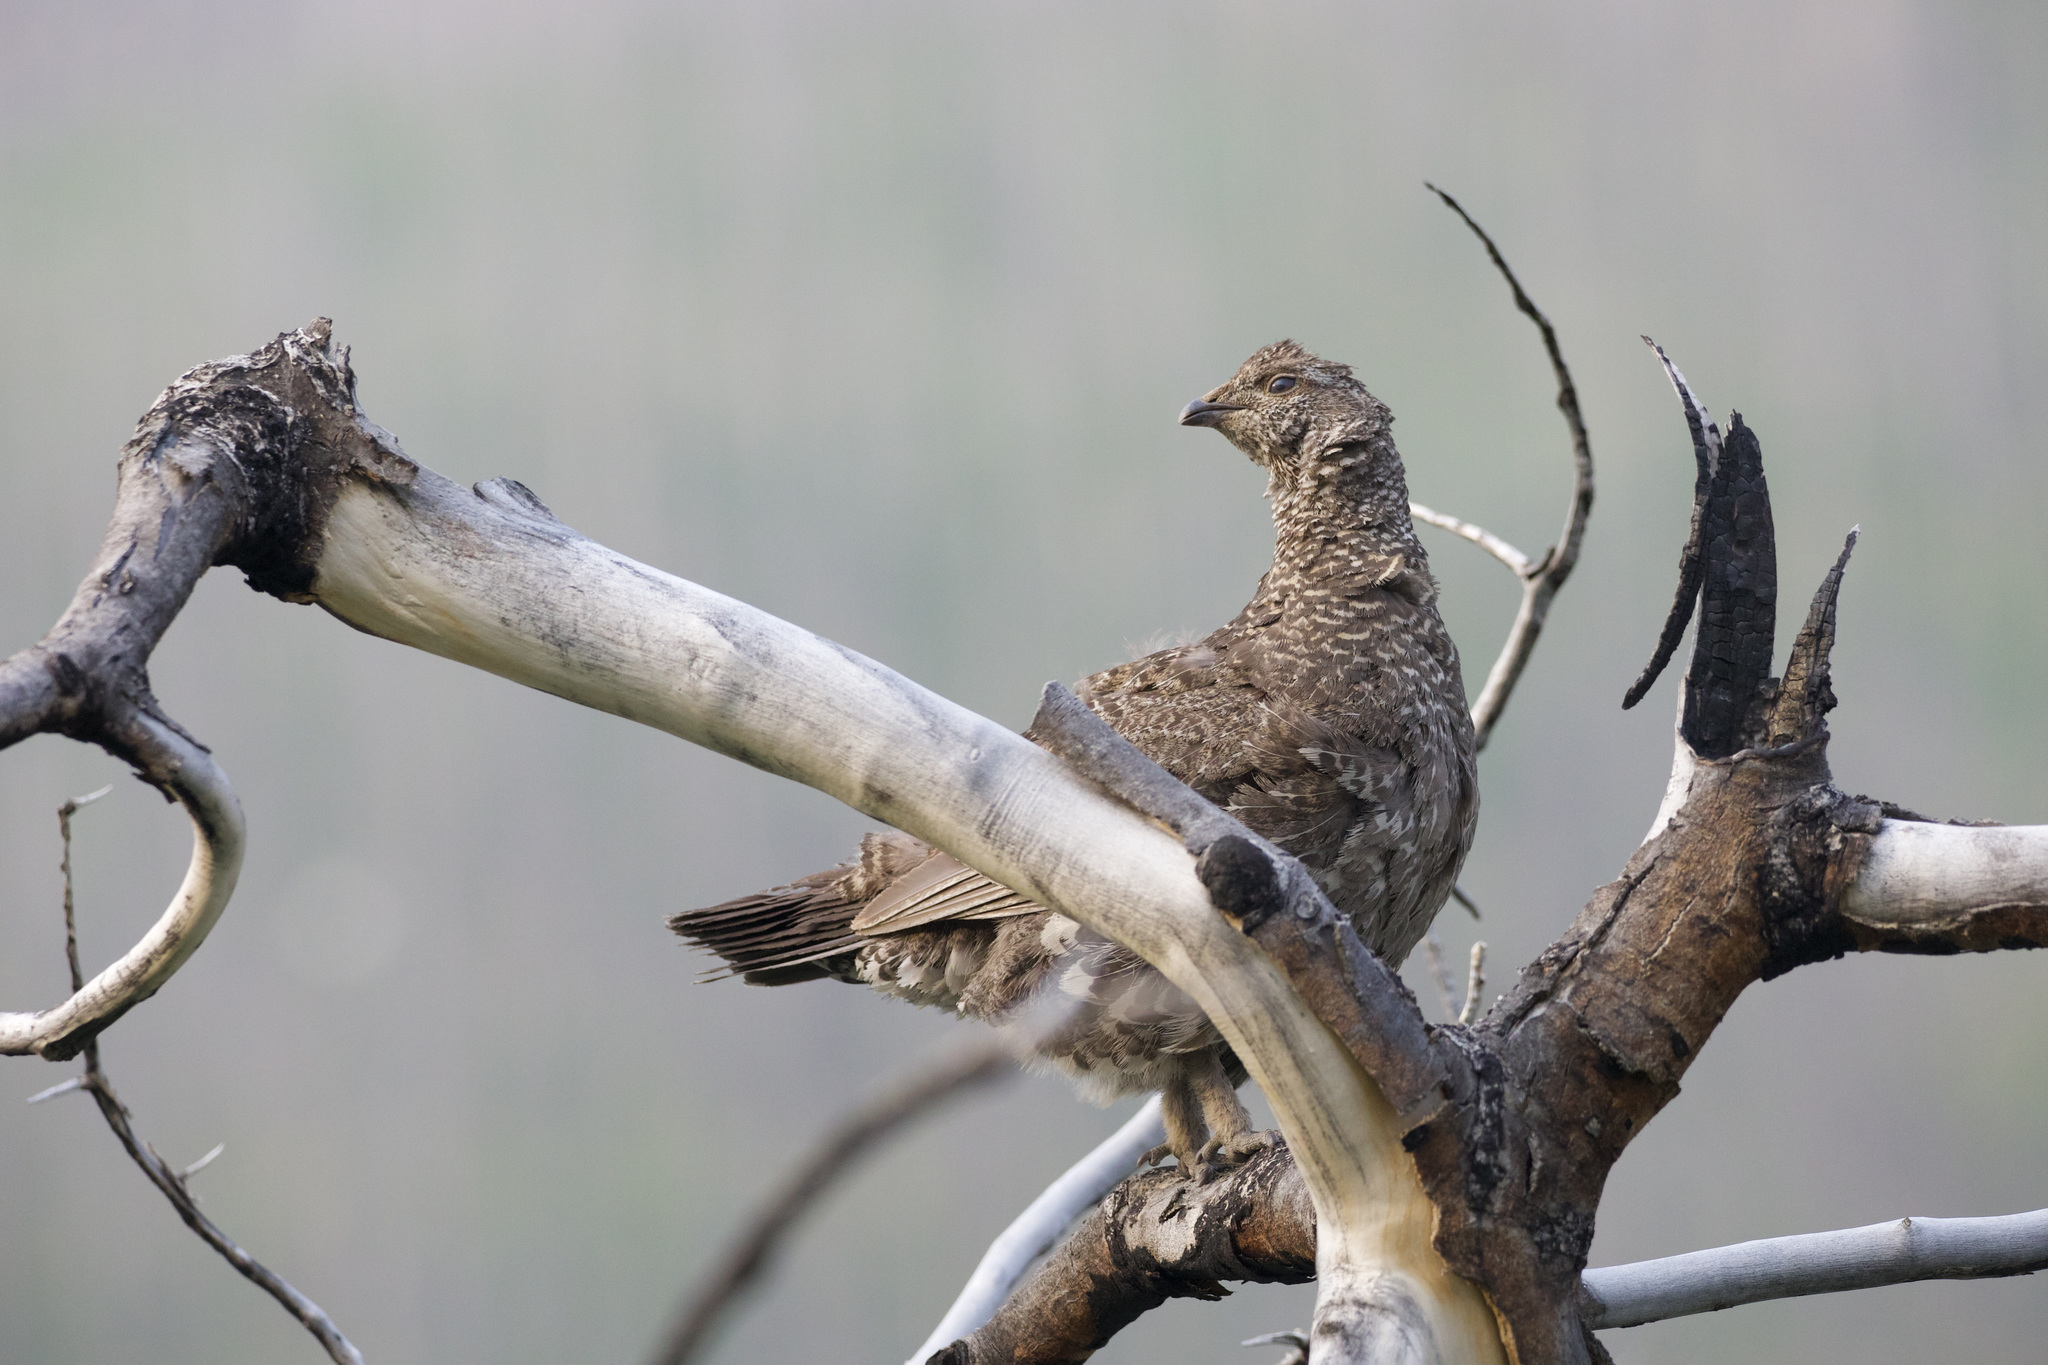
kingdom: Animalia
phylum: Chordata
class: Aves
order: Galliformes
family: Phasianidae
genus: Dendragapus
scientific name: Dendragapus obscurus
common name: Dusky grouse
